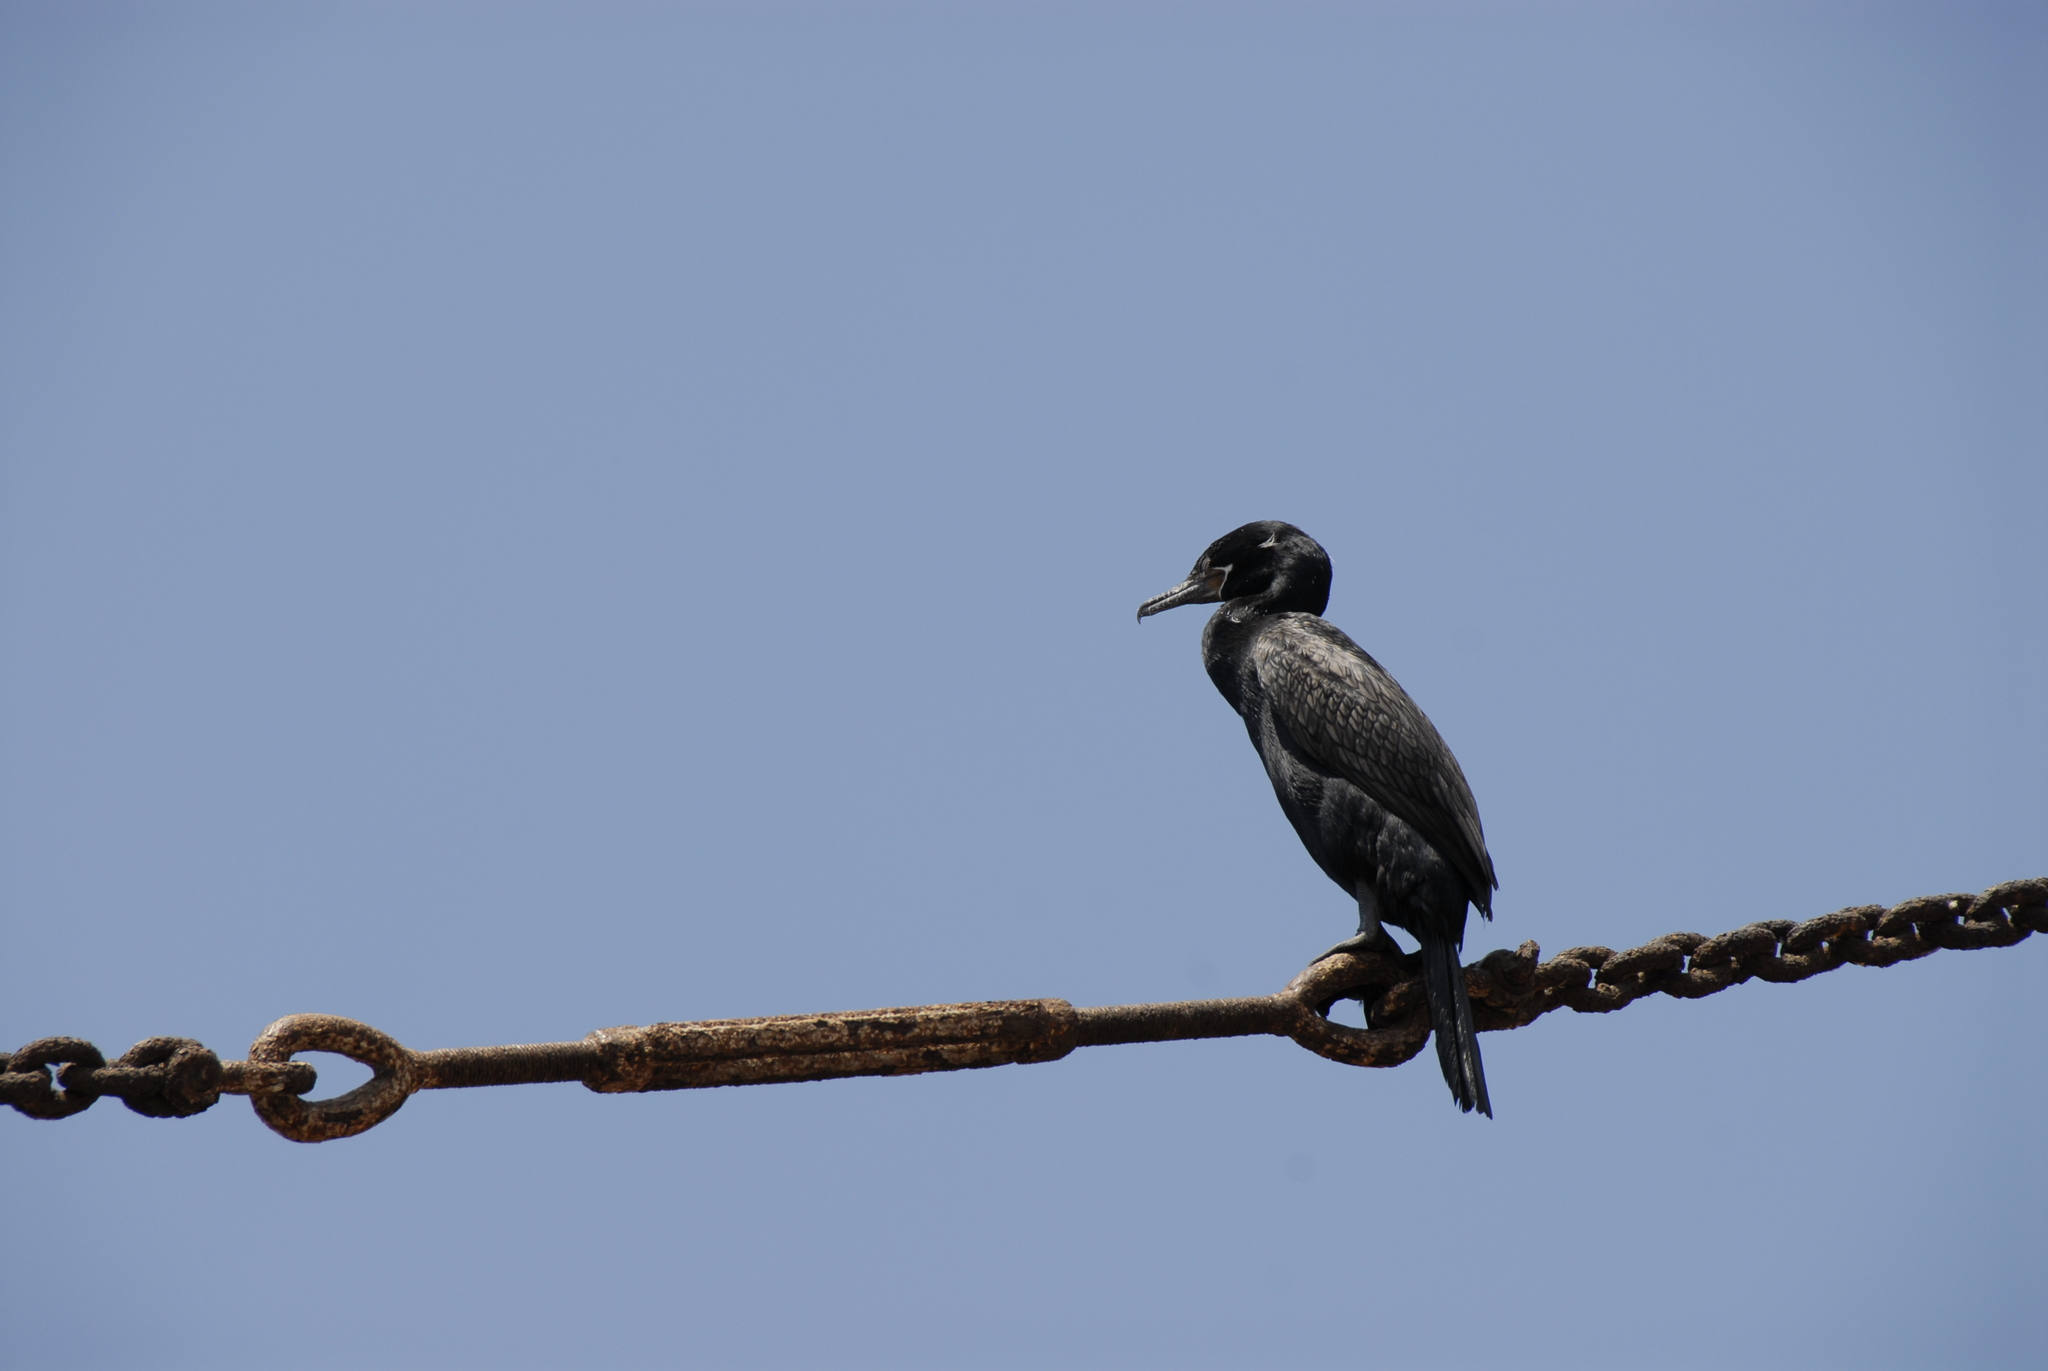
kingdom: Animalia
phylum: Chordata
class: Aves
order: Suliformes
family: Phalacrocoracidae
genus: Phalacrocorax
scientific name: Phalacrocorax brasilianus
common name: Neotropic cormorant
